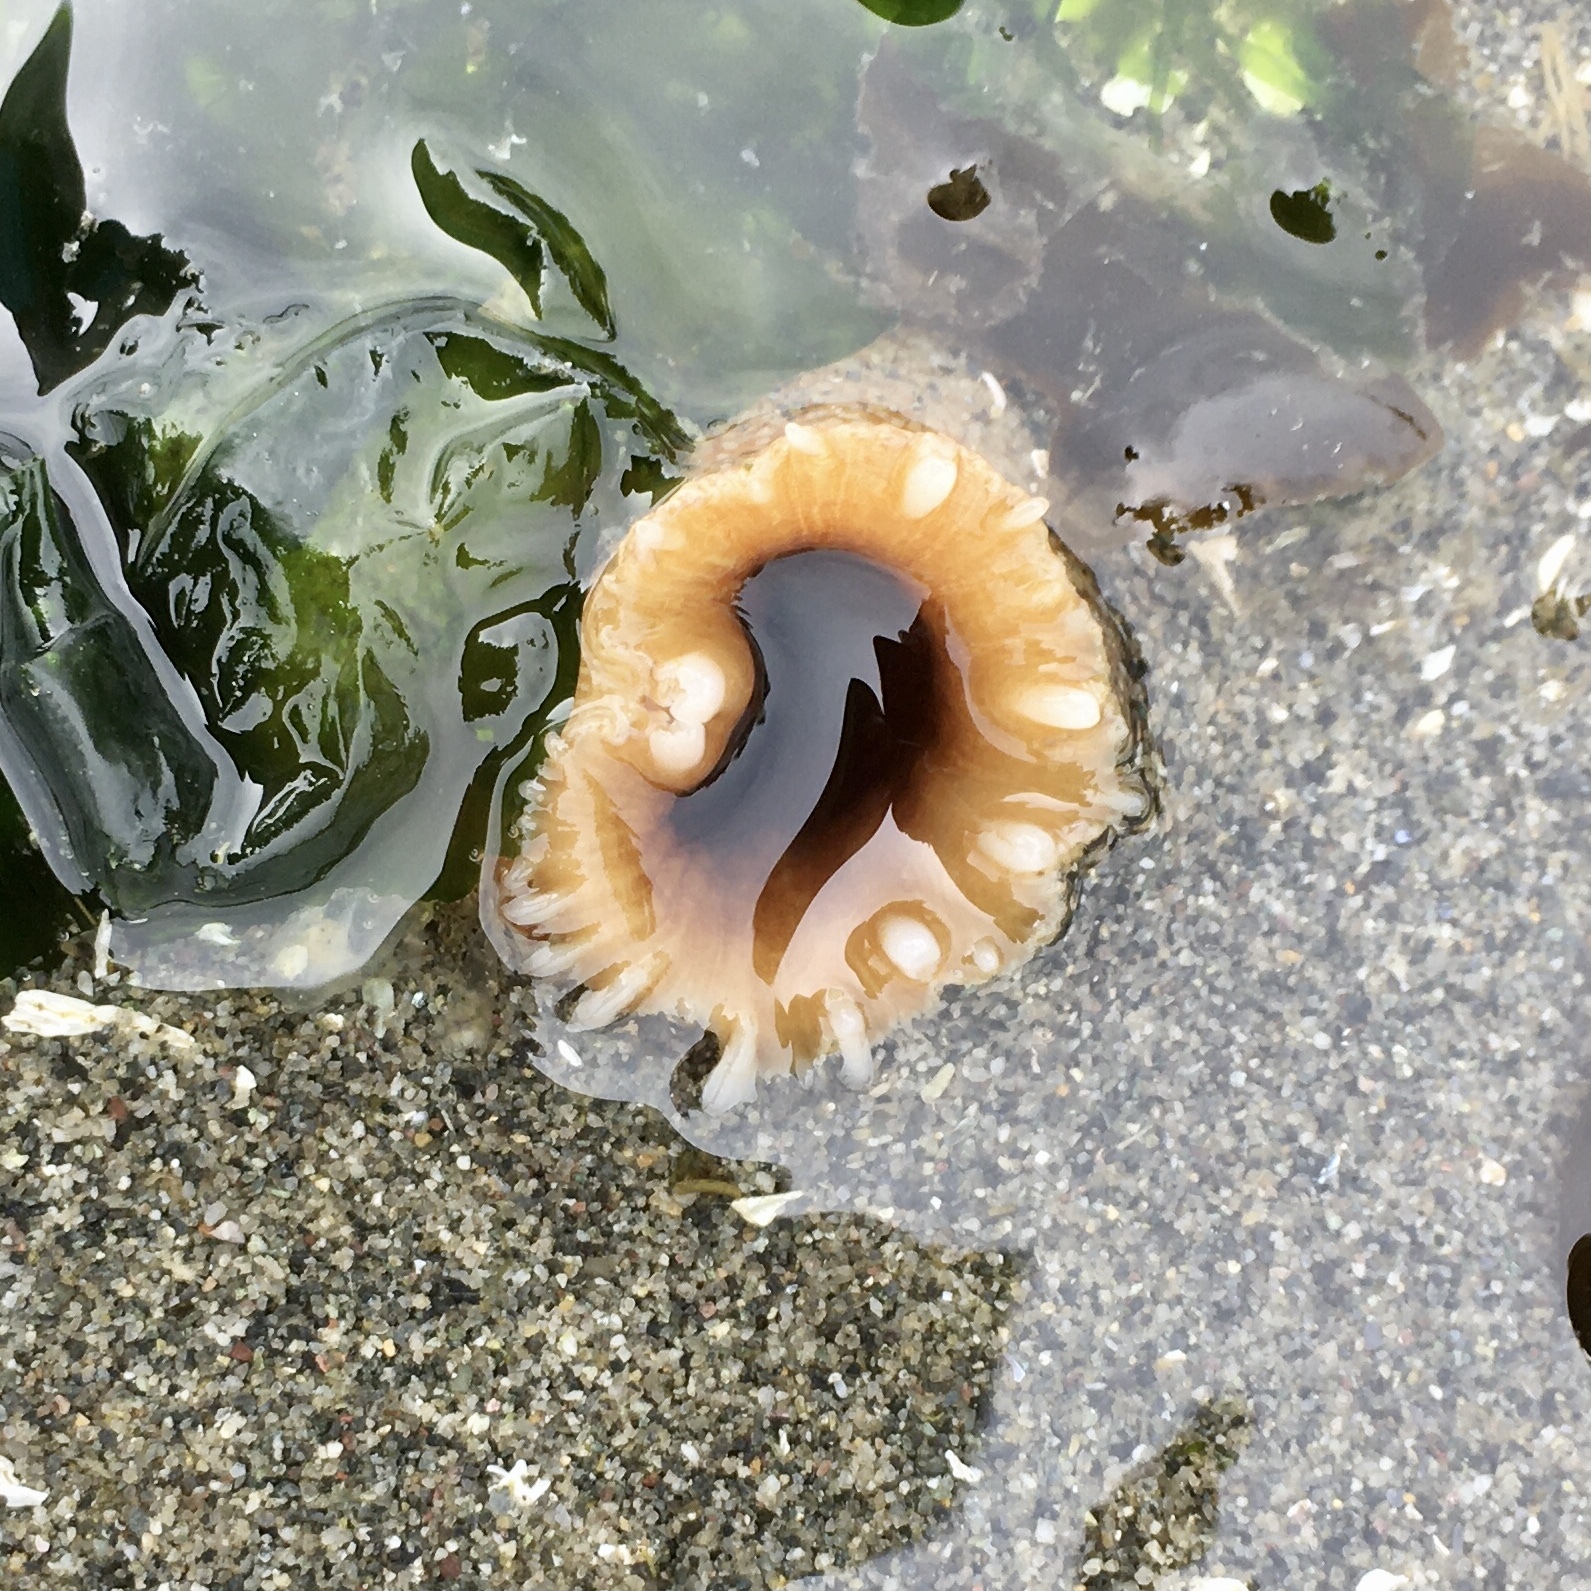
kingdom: Animalia
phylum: Mollusca
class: Bivalvia
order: Myida
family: Pholadidae
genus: Zirfaea
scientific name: Zirfaea pilsbryi
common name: Rough piddock
